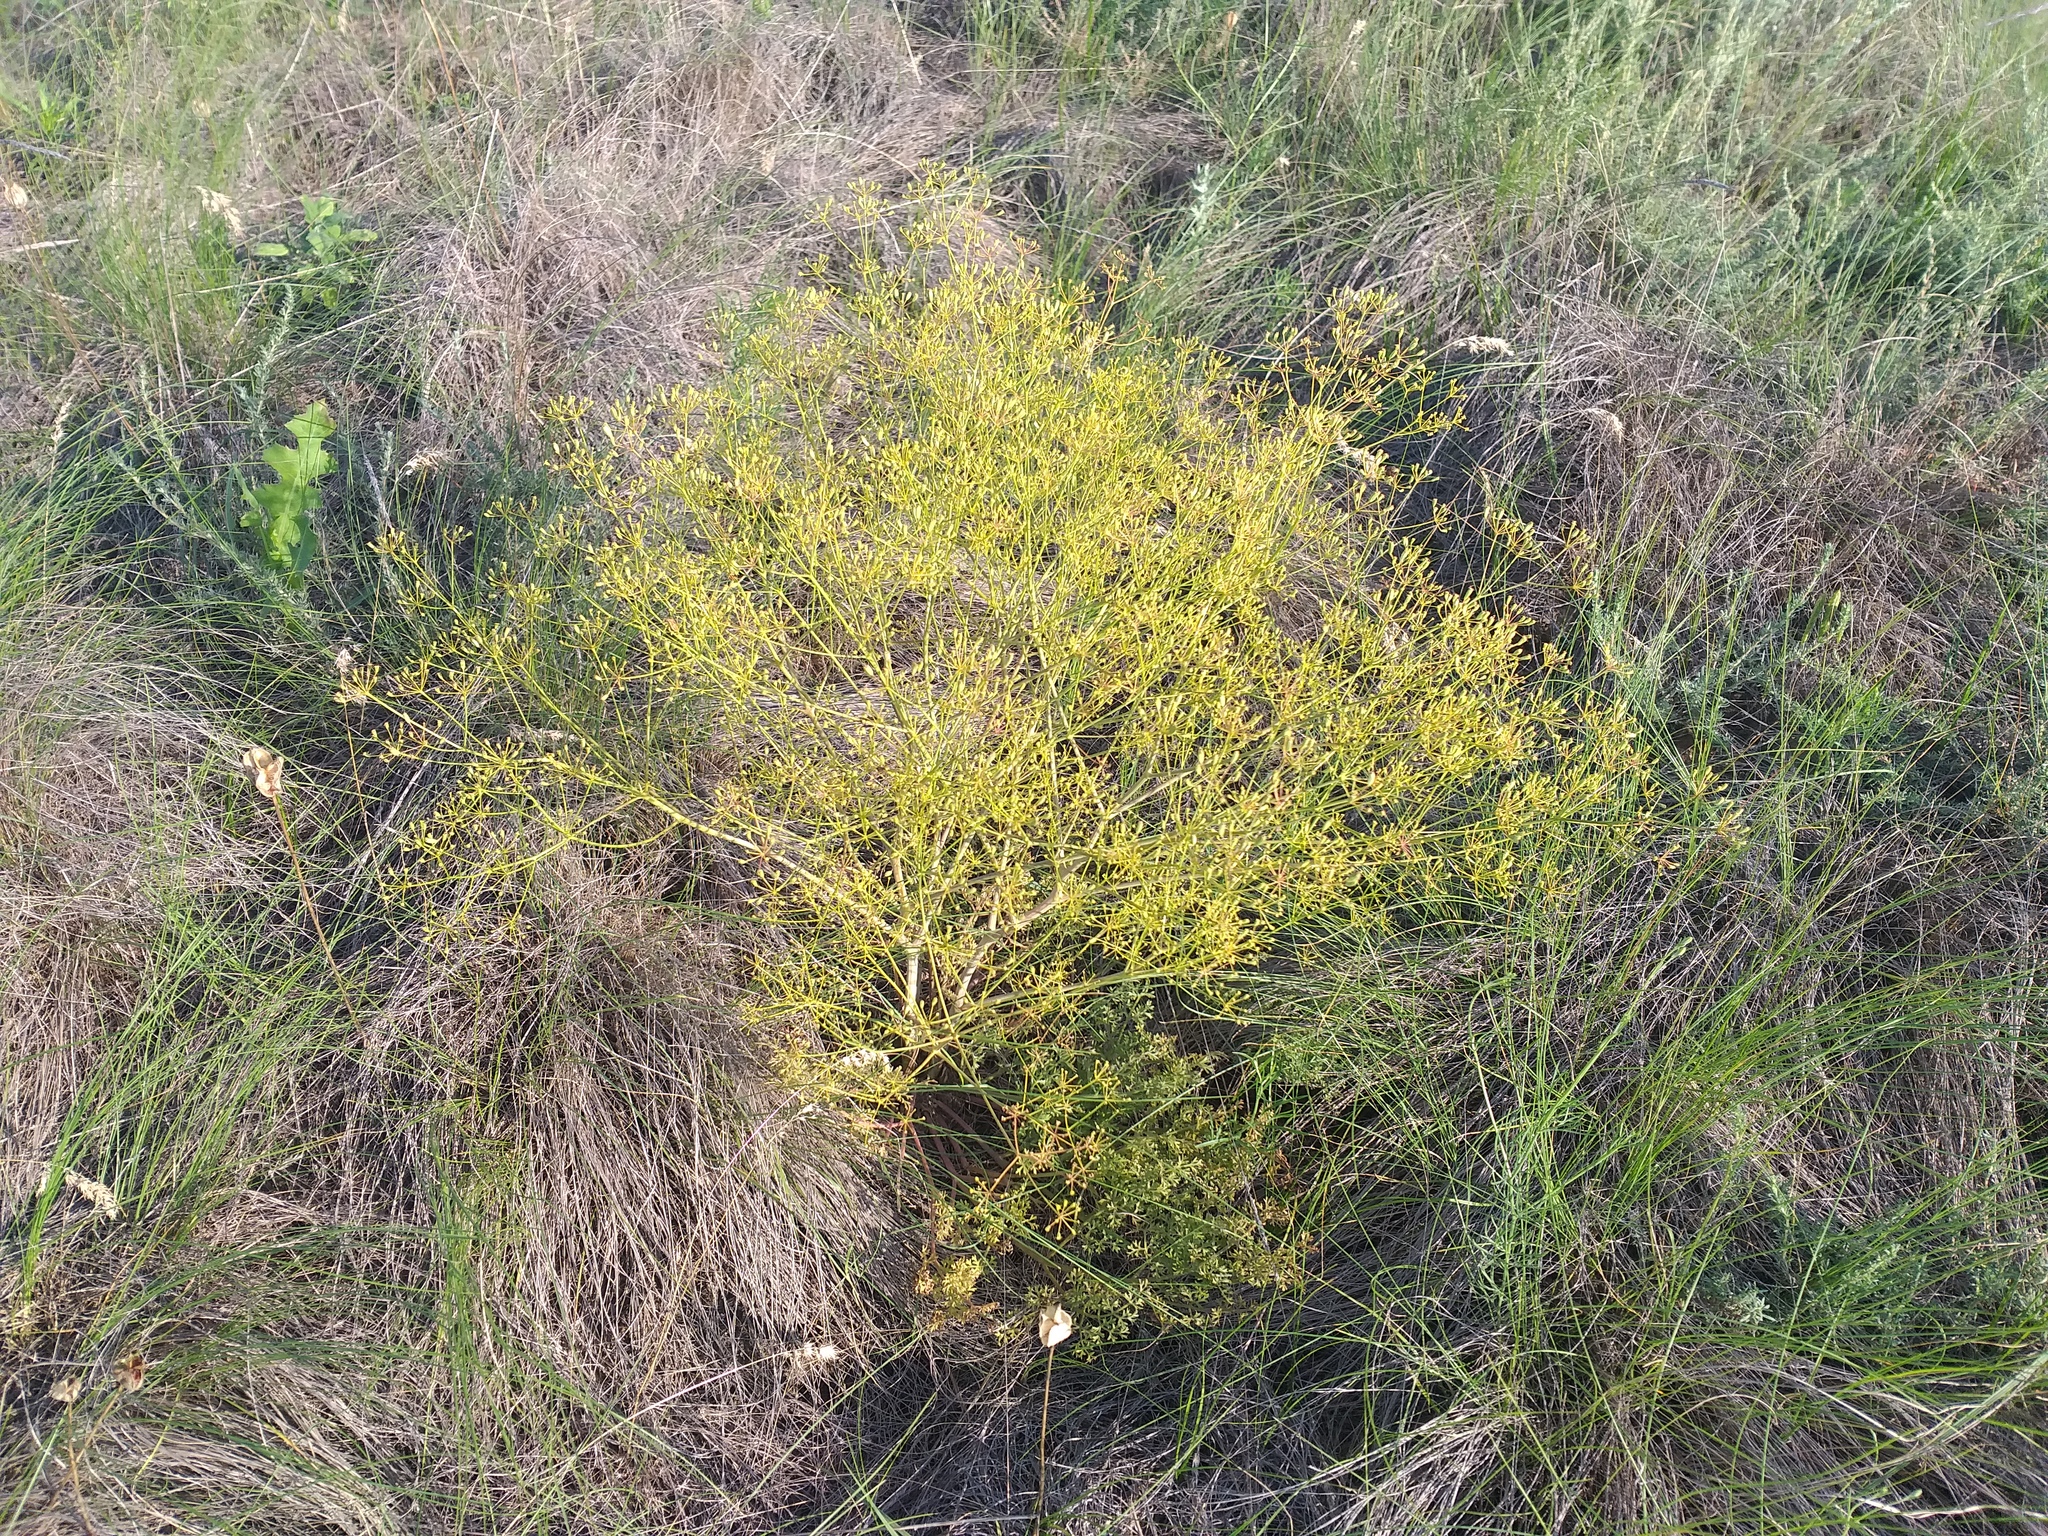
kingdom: Plantae
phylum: Tracheophyta
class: Magnoliopsida
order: Apiales
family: Apiaceae
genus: Ferula
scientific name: Ferula caspica
